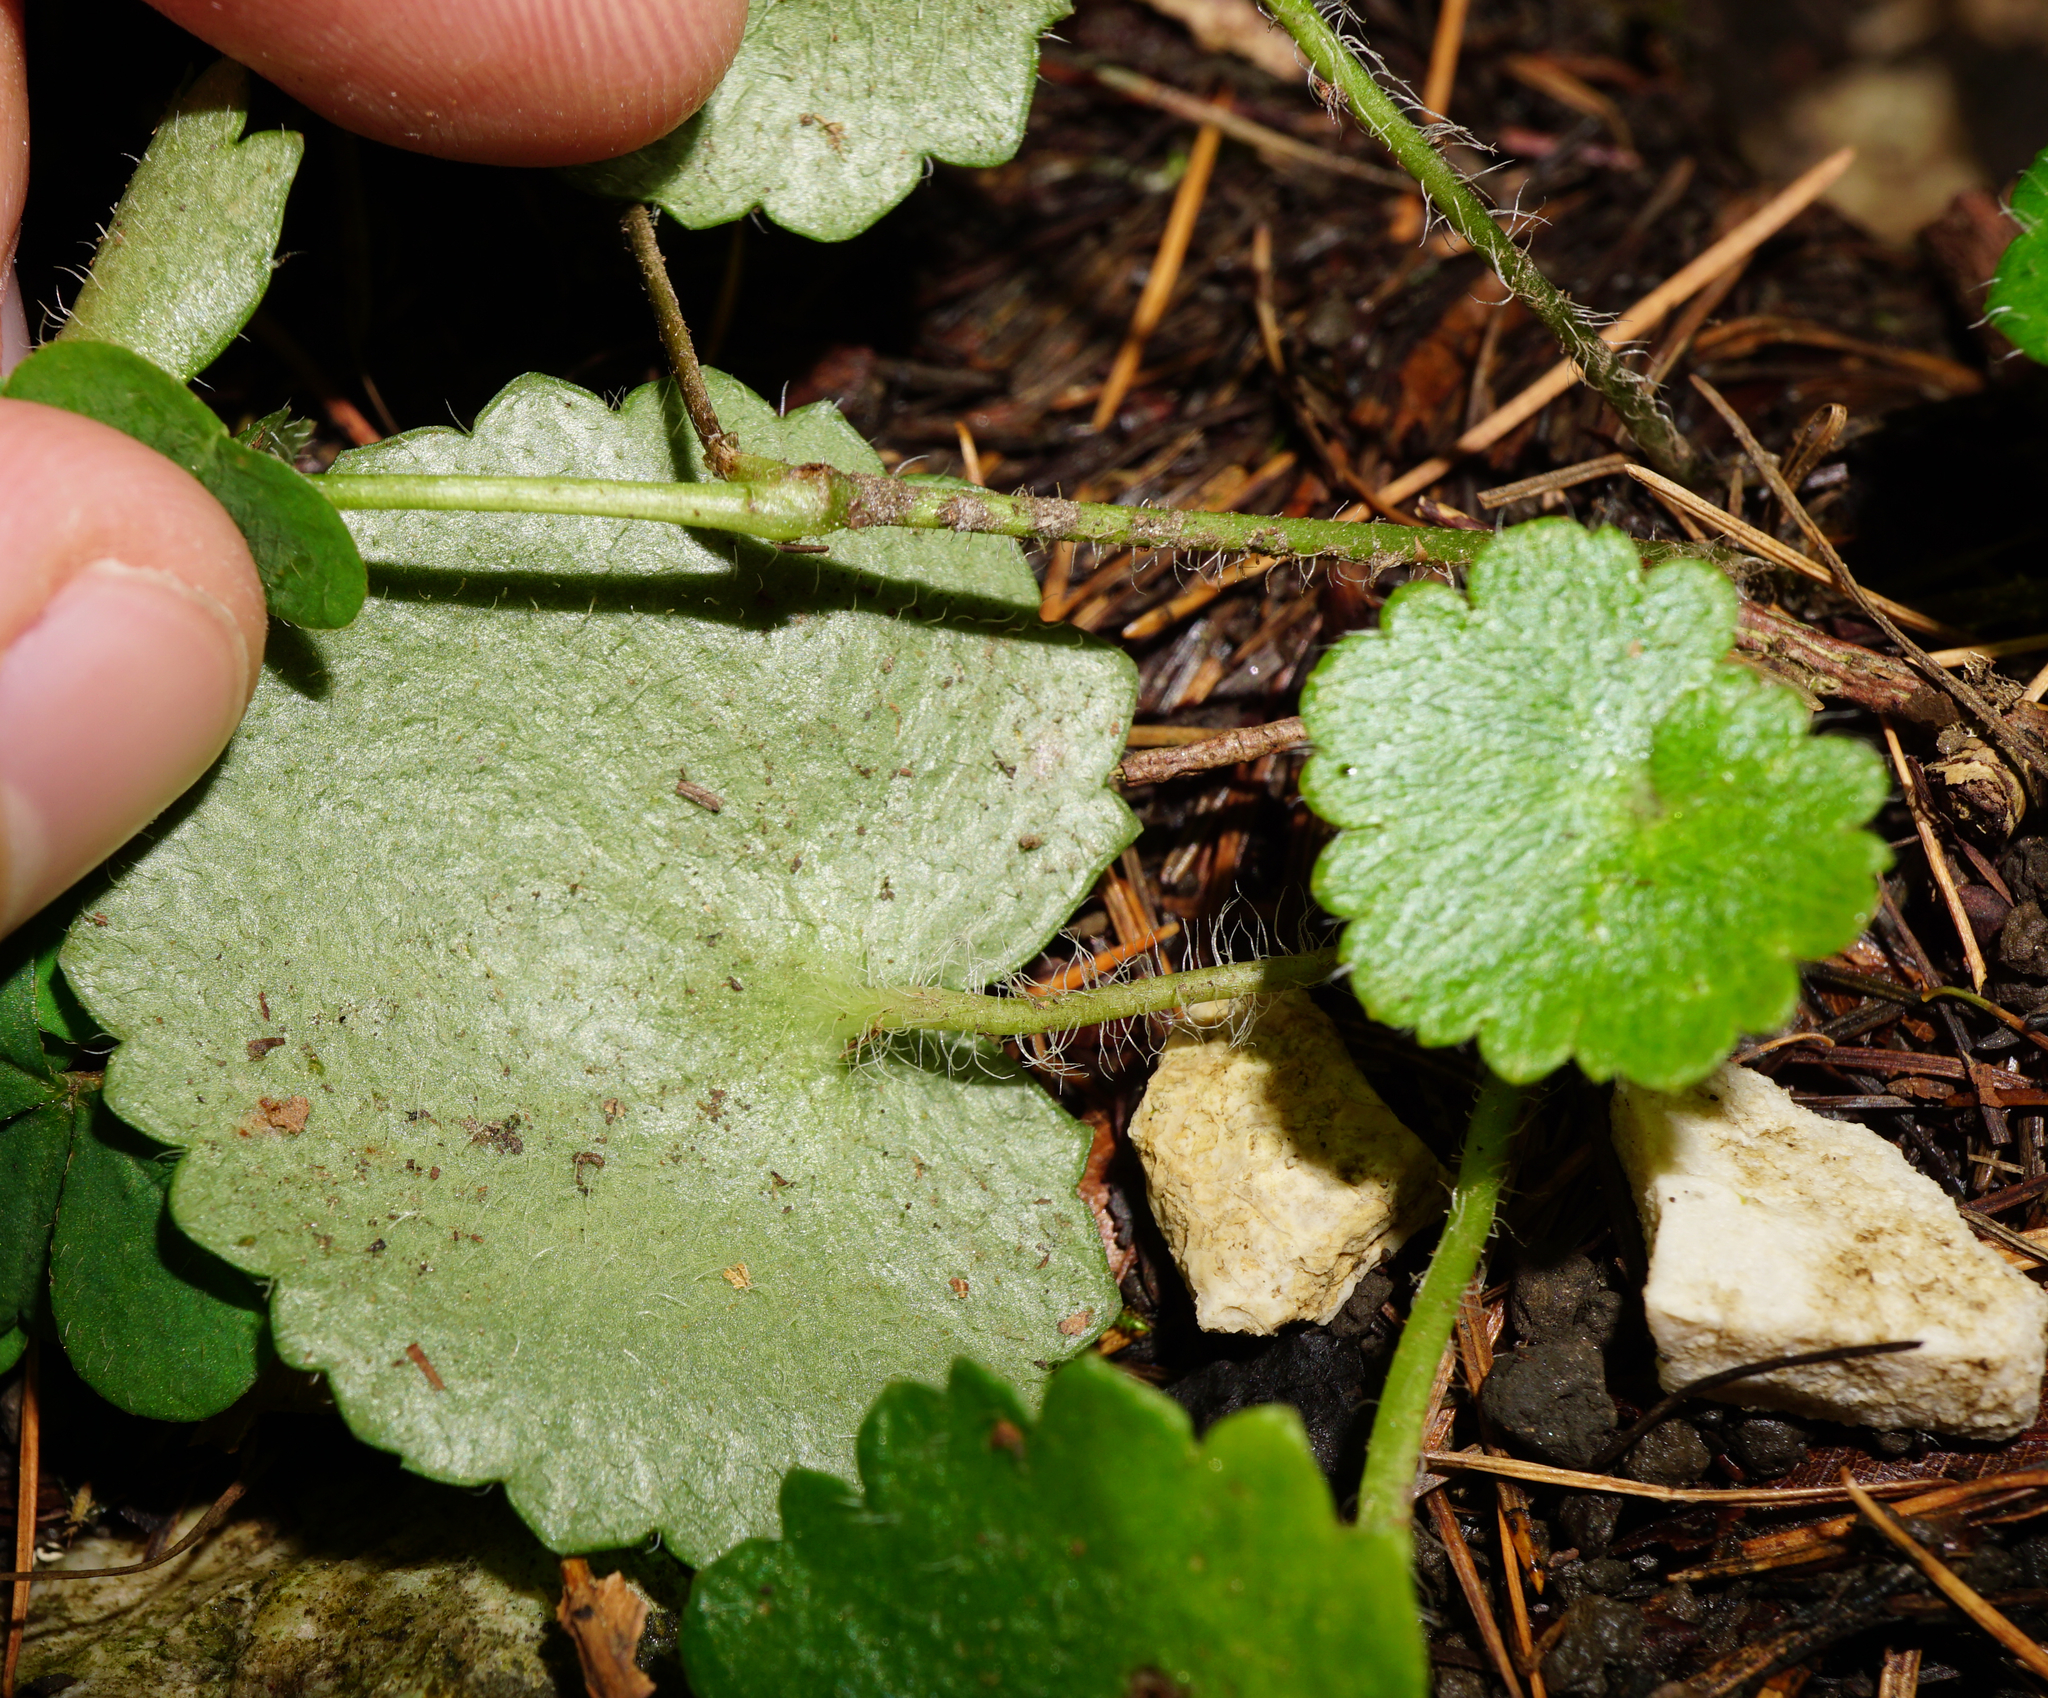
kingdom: Plantae
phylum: Tracheophyta
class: Magnoliopsida
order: Saxifragales
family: Saxifragaceae
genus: Saxifraga
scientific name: Saxifraga rotundifolia
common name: Round-leaved saxifrage
